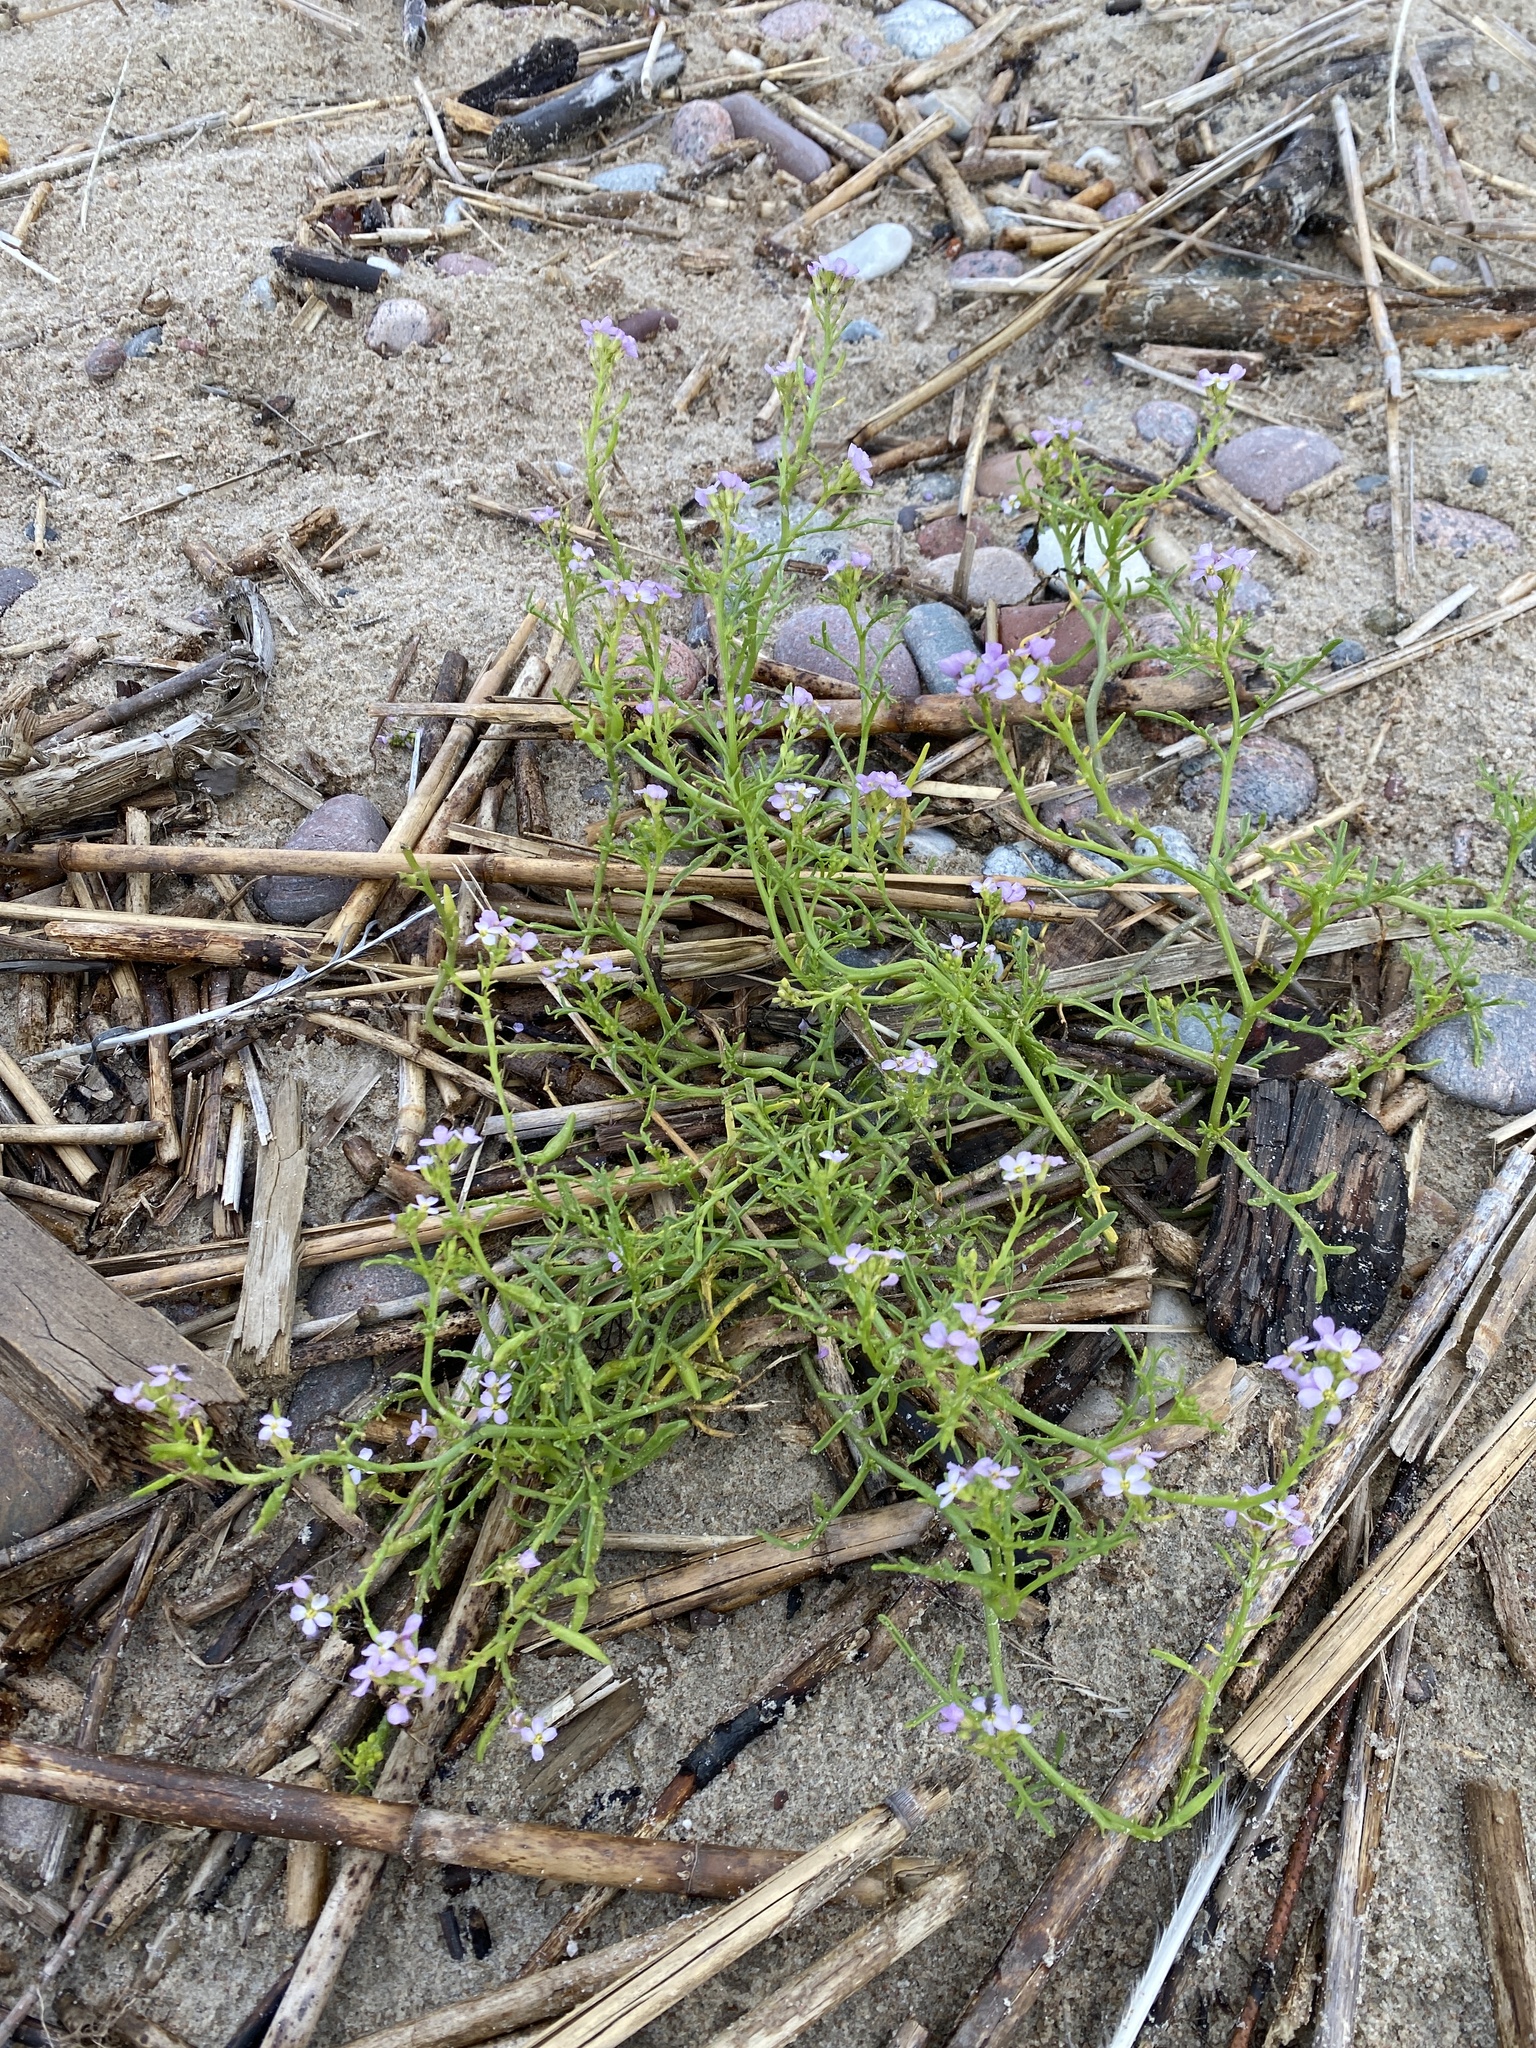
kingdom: Plantae
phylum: Tracheophyta
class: Magnoliopsida
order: Brassicales
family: Brassicaceae
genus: Cakile
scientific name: Cakile maritima
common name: Sea rocket
